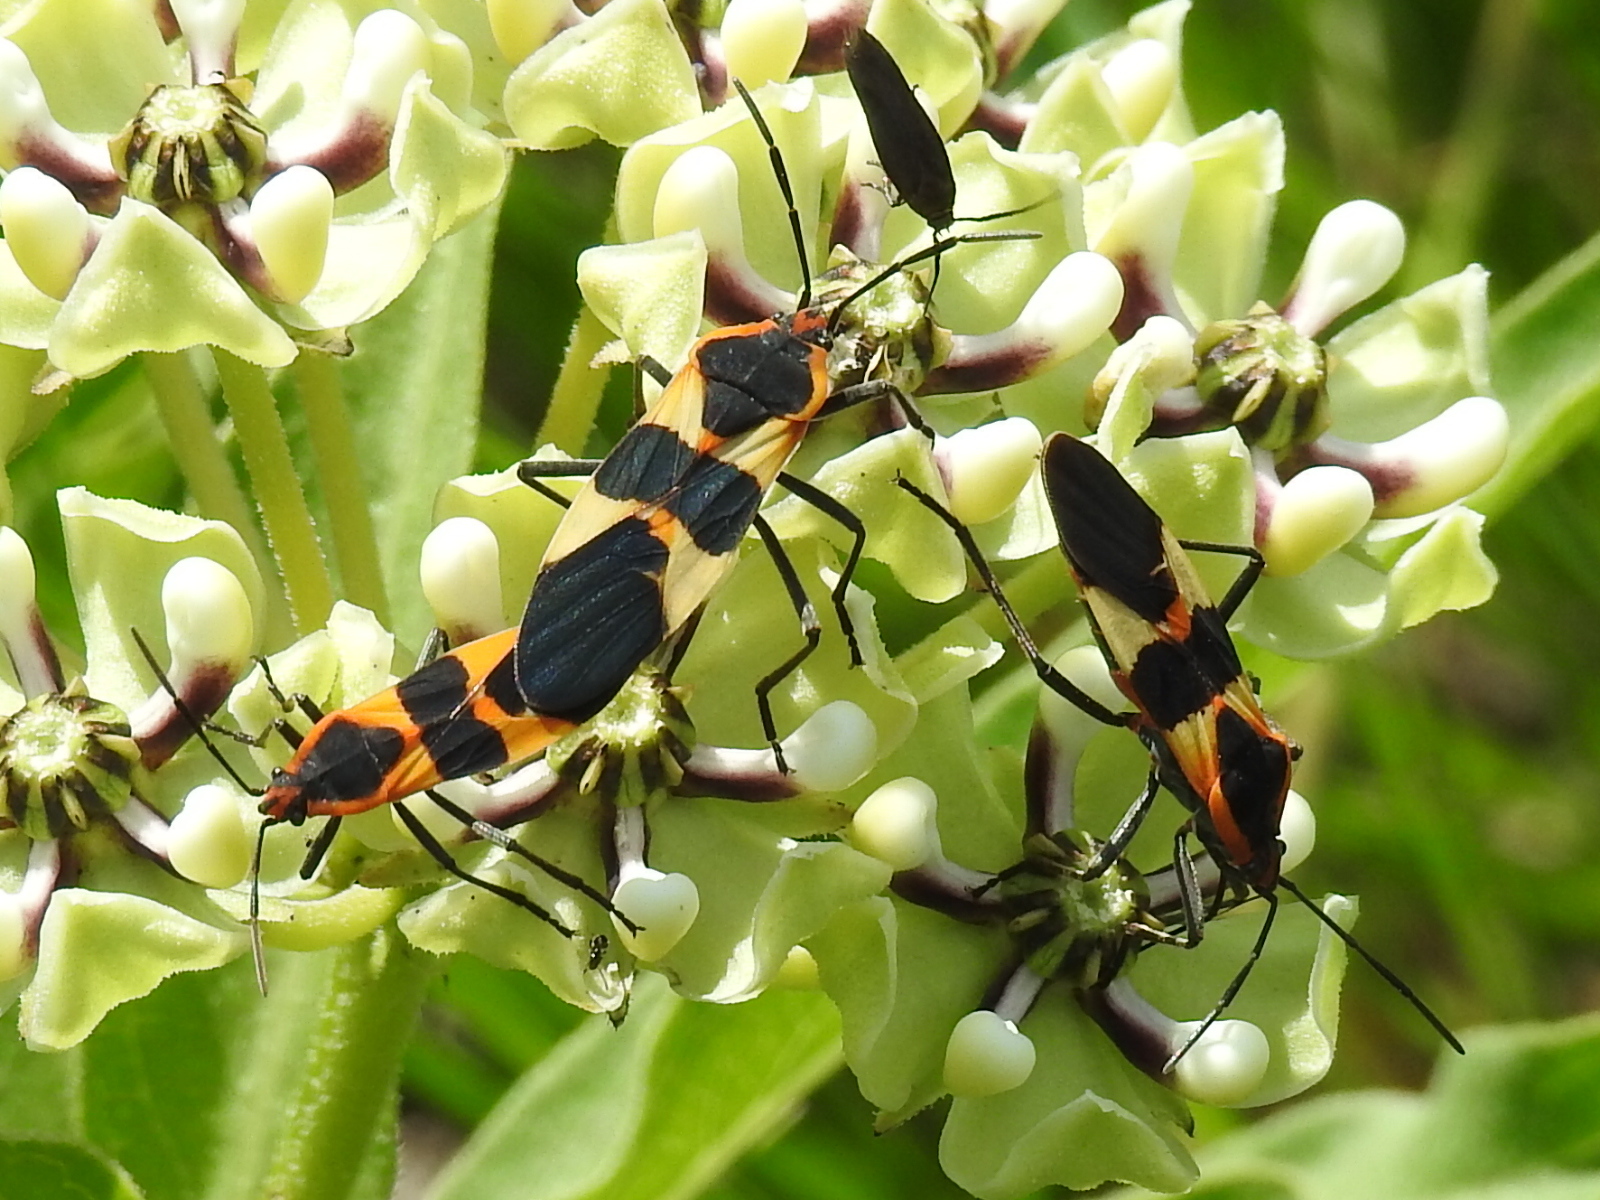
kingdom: Animalia
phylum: Arthropoda
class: Insecta
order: Hemiptera
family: Lygaeidae
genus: Oncopeltus
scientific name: Oncopeltus fasciatus
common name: Large milkweed bug
